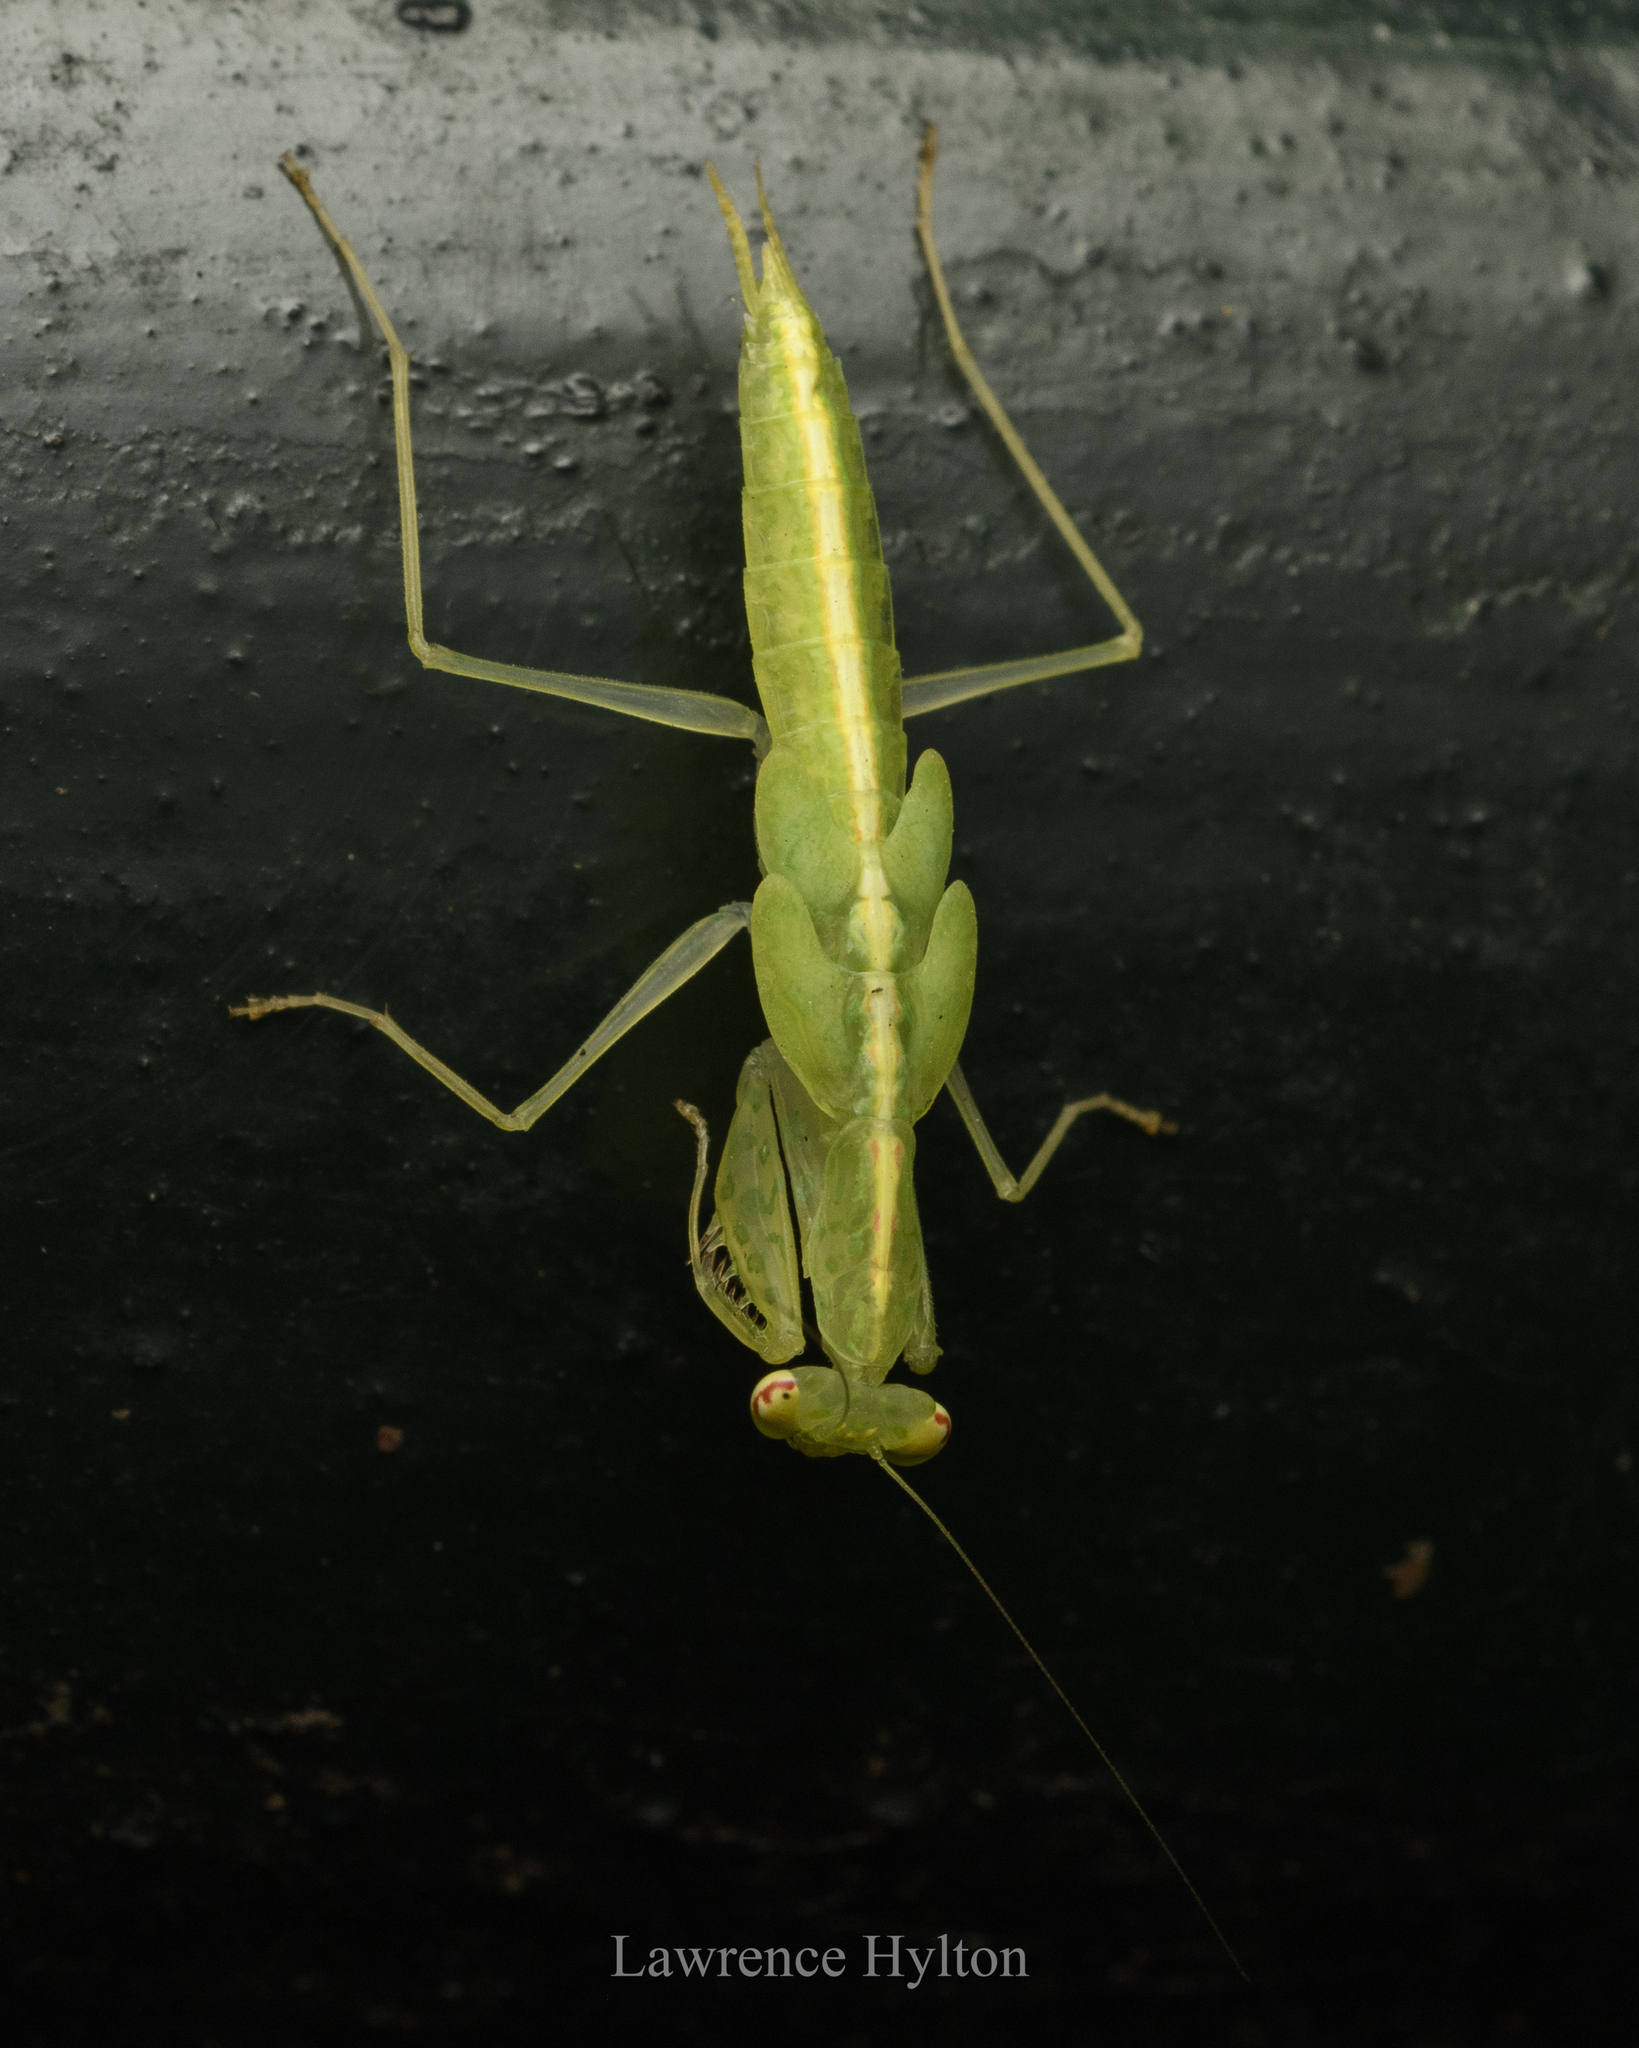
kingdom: Animalia
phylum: Arthropoda
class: Insecta
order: Mantodea
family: Nanomantidae
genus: Tropidomantis
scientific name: Tropidomantis gressitti
